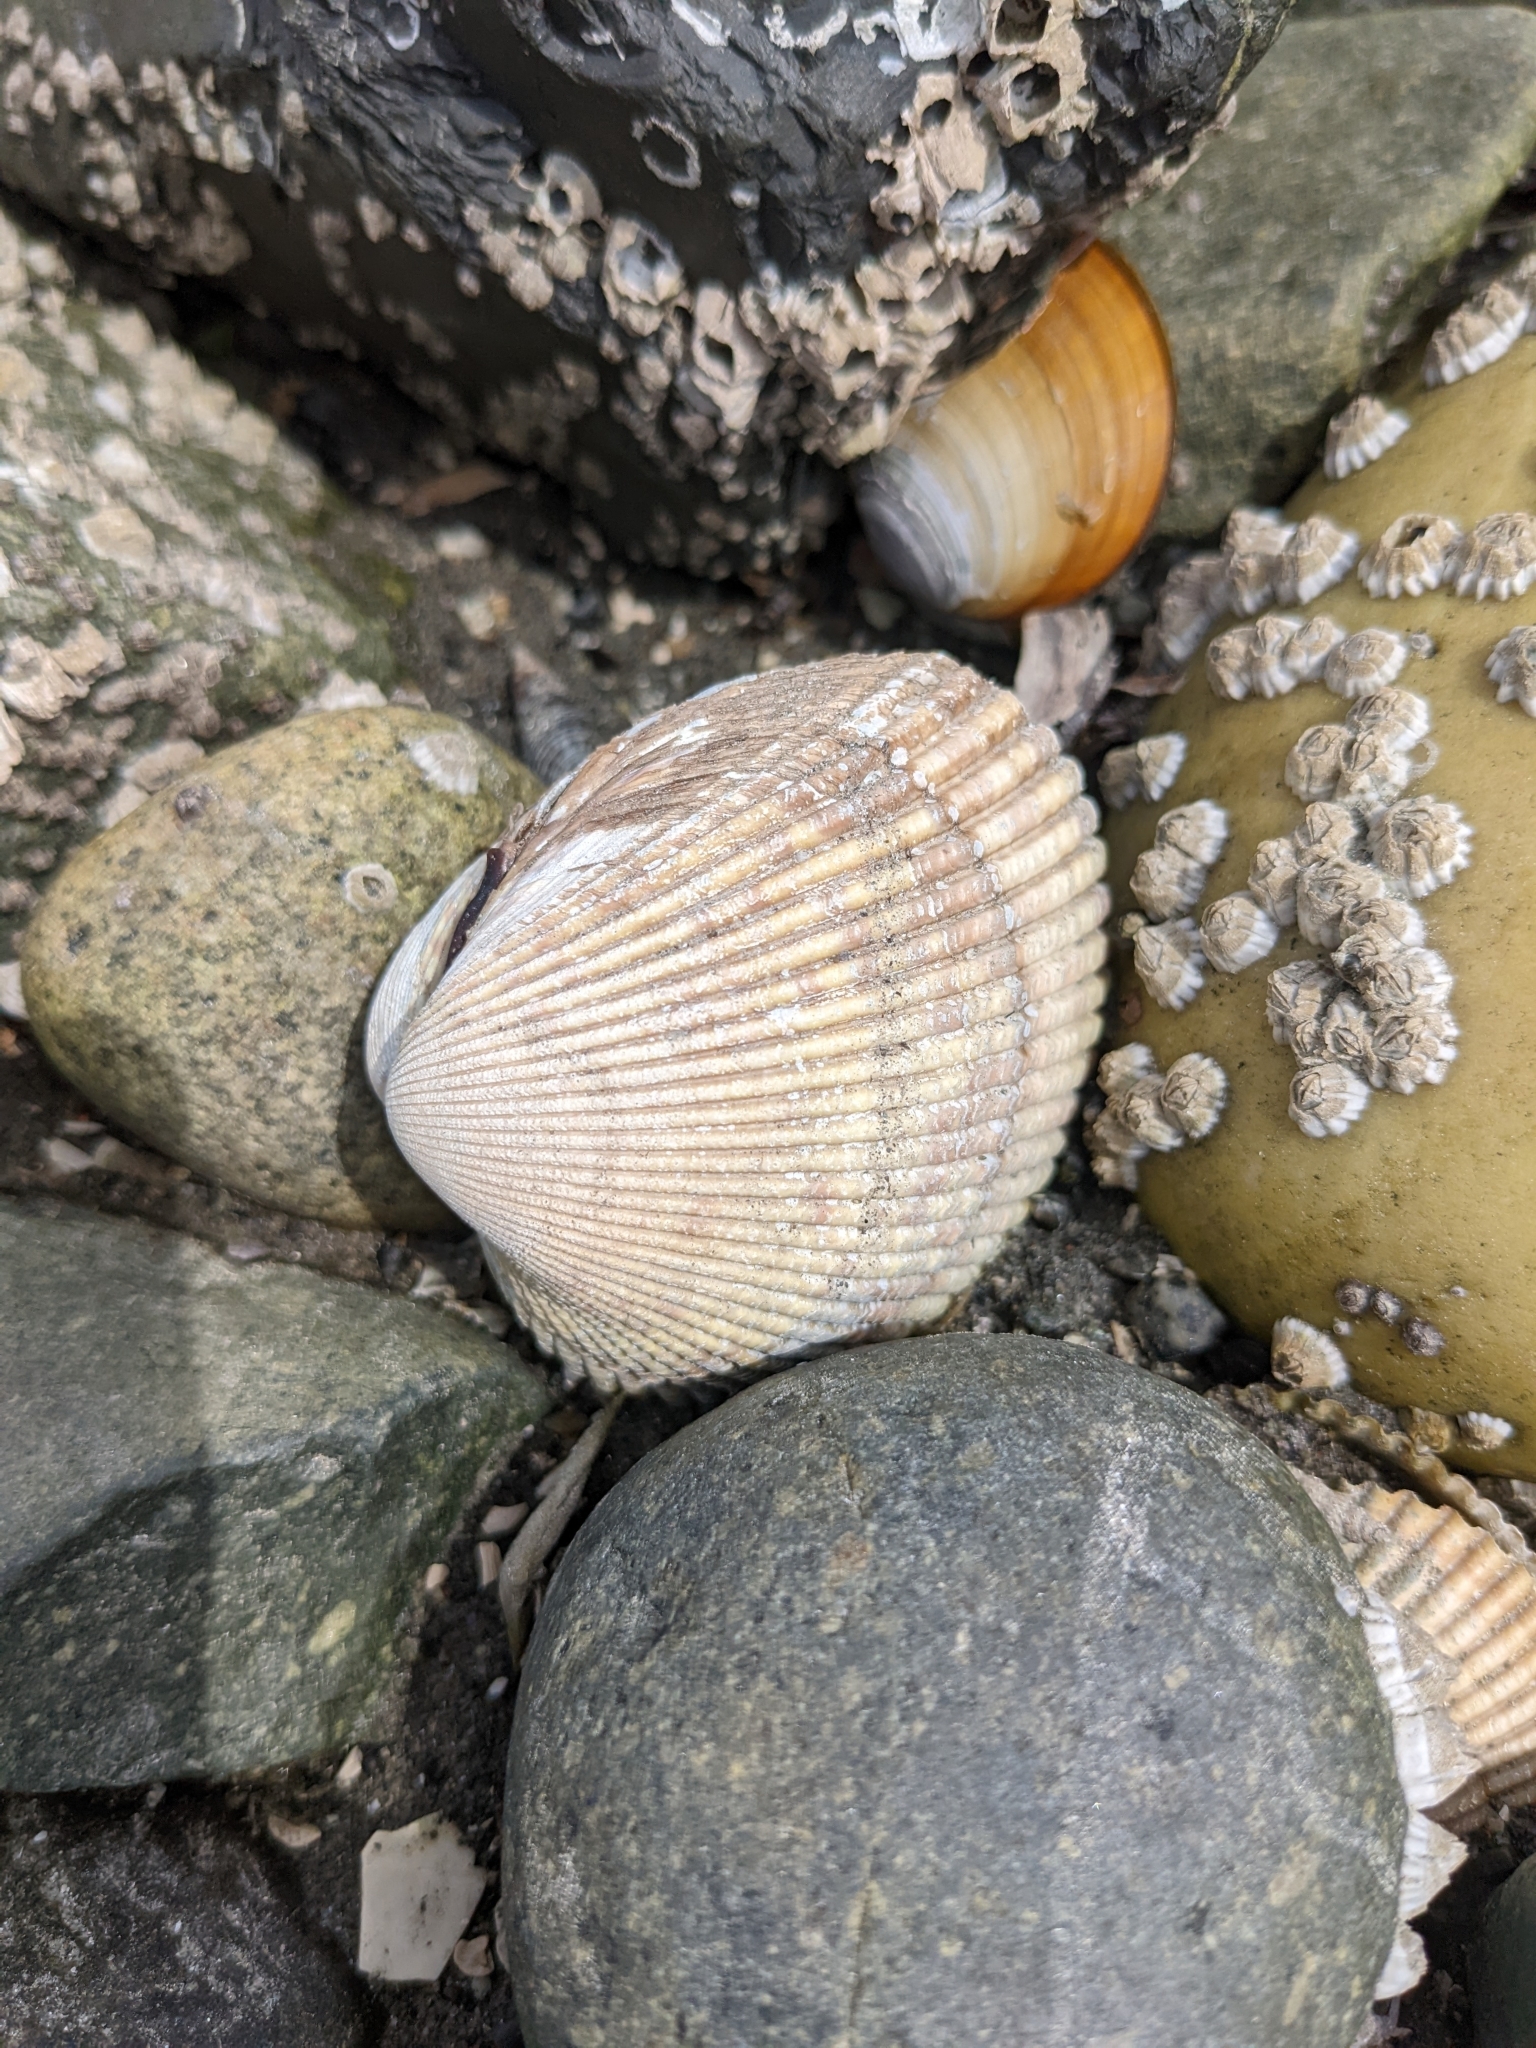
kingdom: Animalia
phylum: Mollusca
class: Bivalvia
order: Cardiida
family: Cardiidae
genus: Clinocardium
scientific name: Clinocardium nuttallii
